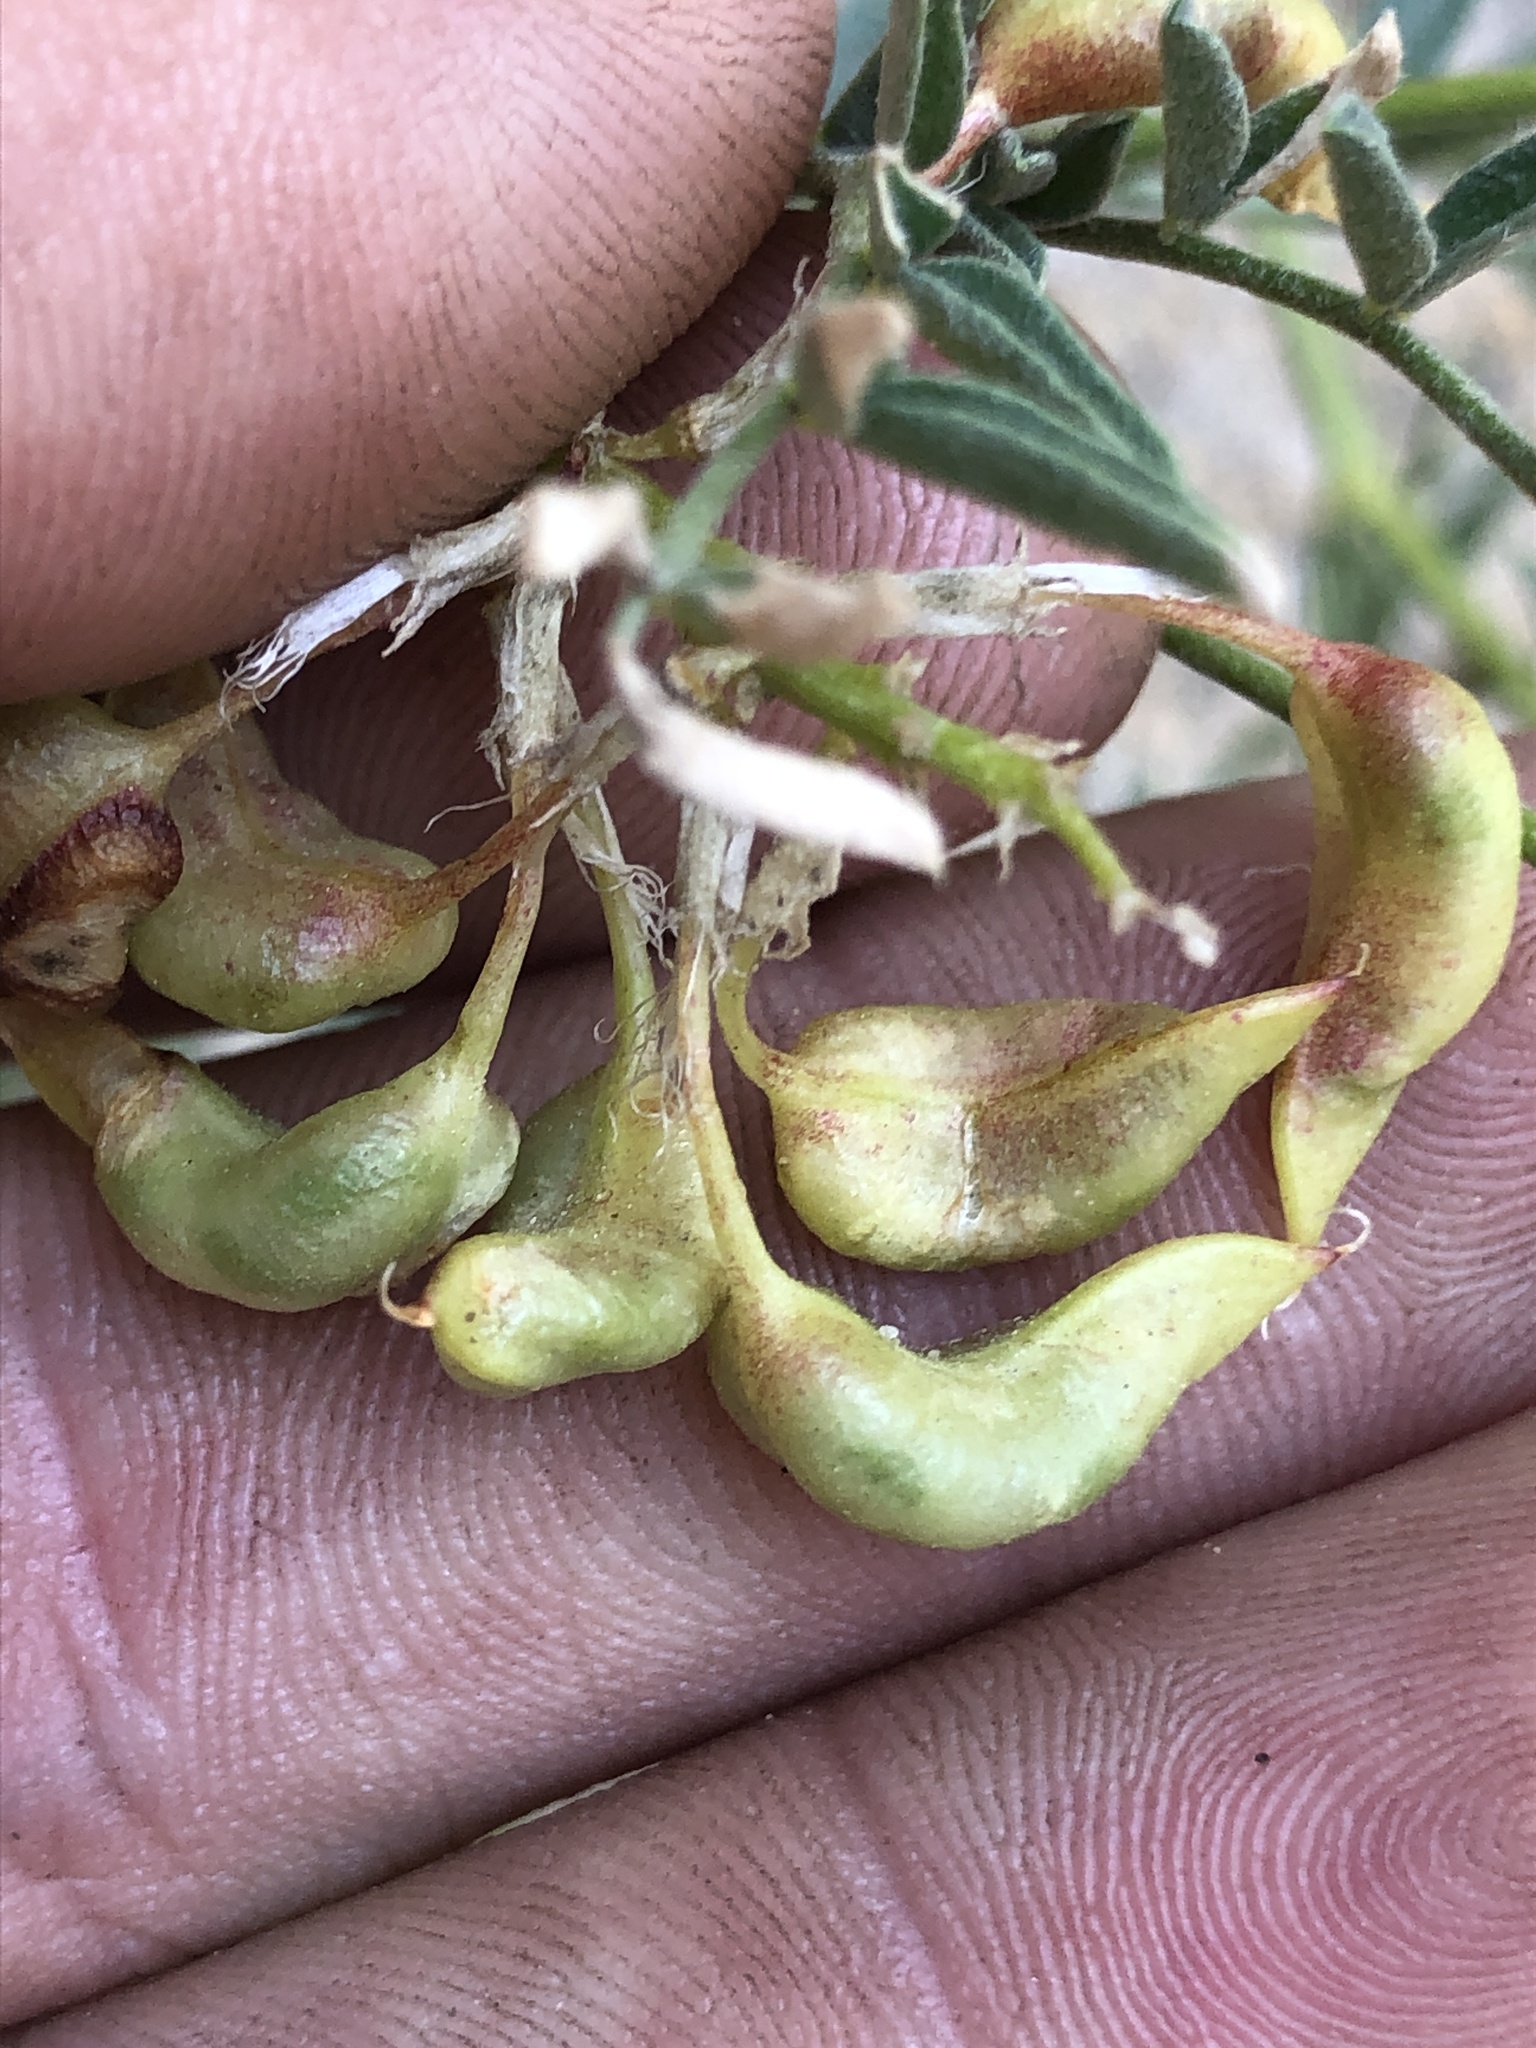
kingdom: Plantae
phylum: Tracheophyta
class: Magnoliopsida
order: Fabales
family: Fabaceae
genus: Astragalus
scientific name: Astragalus bolanderi
